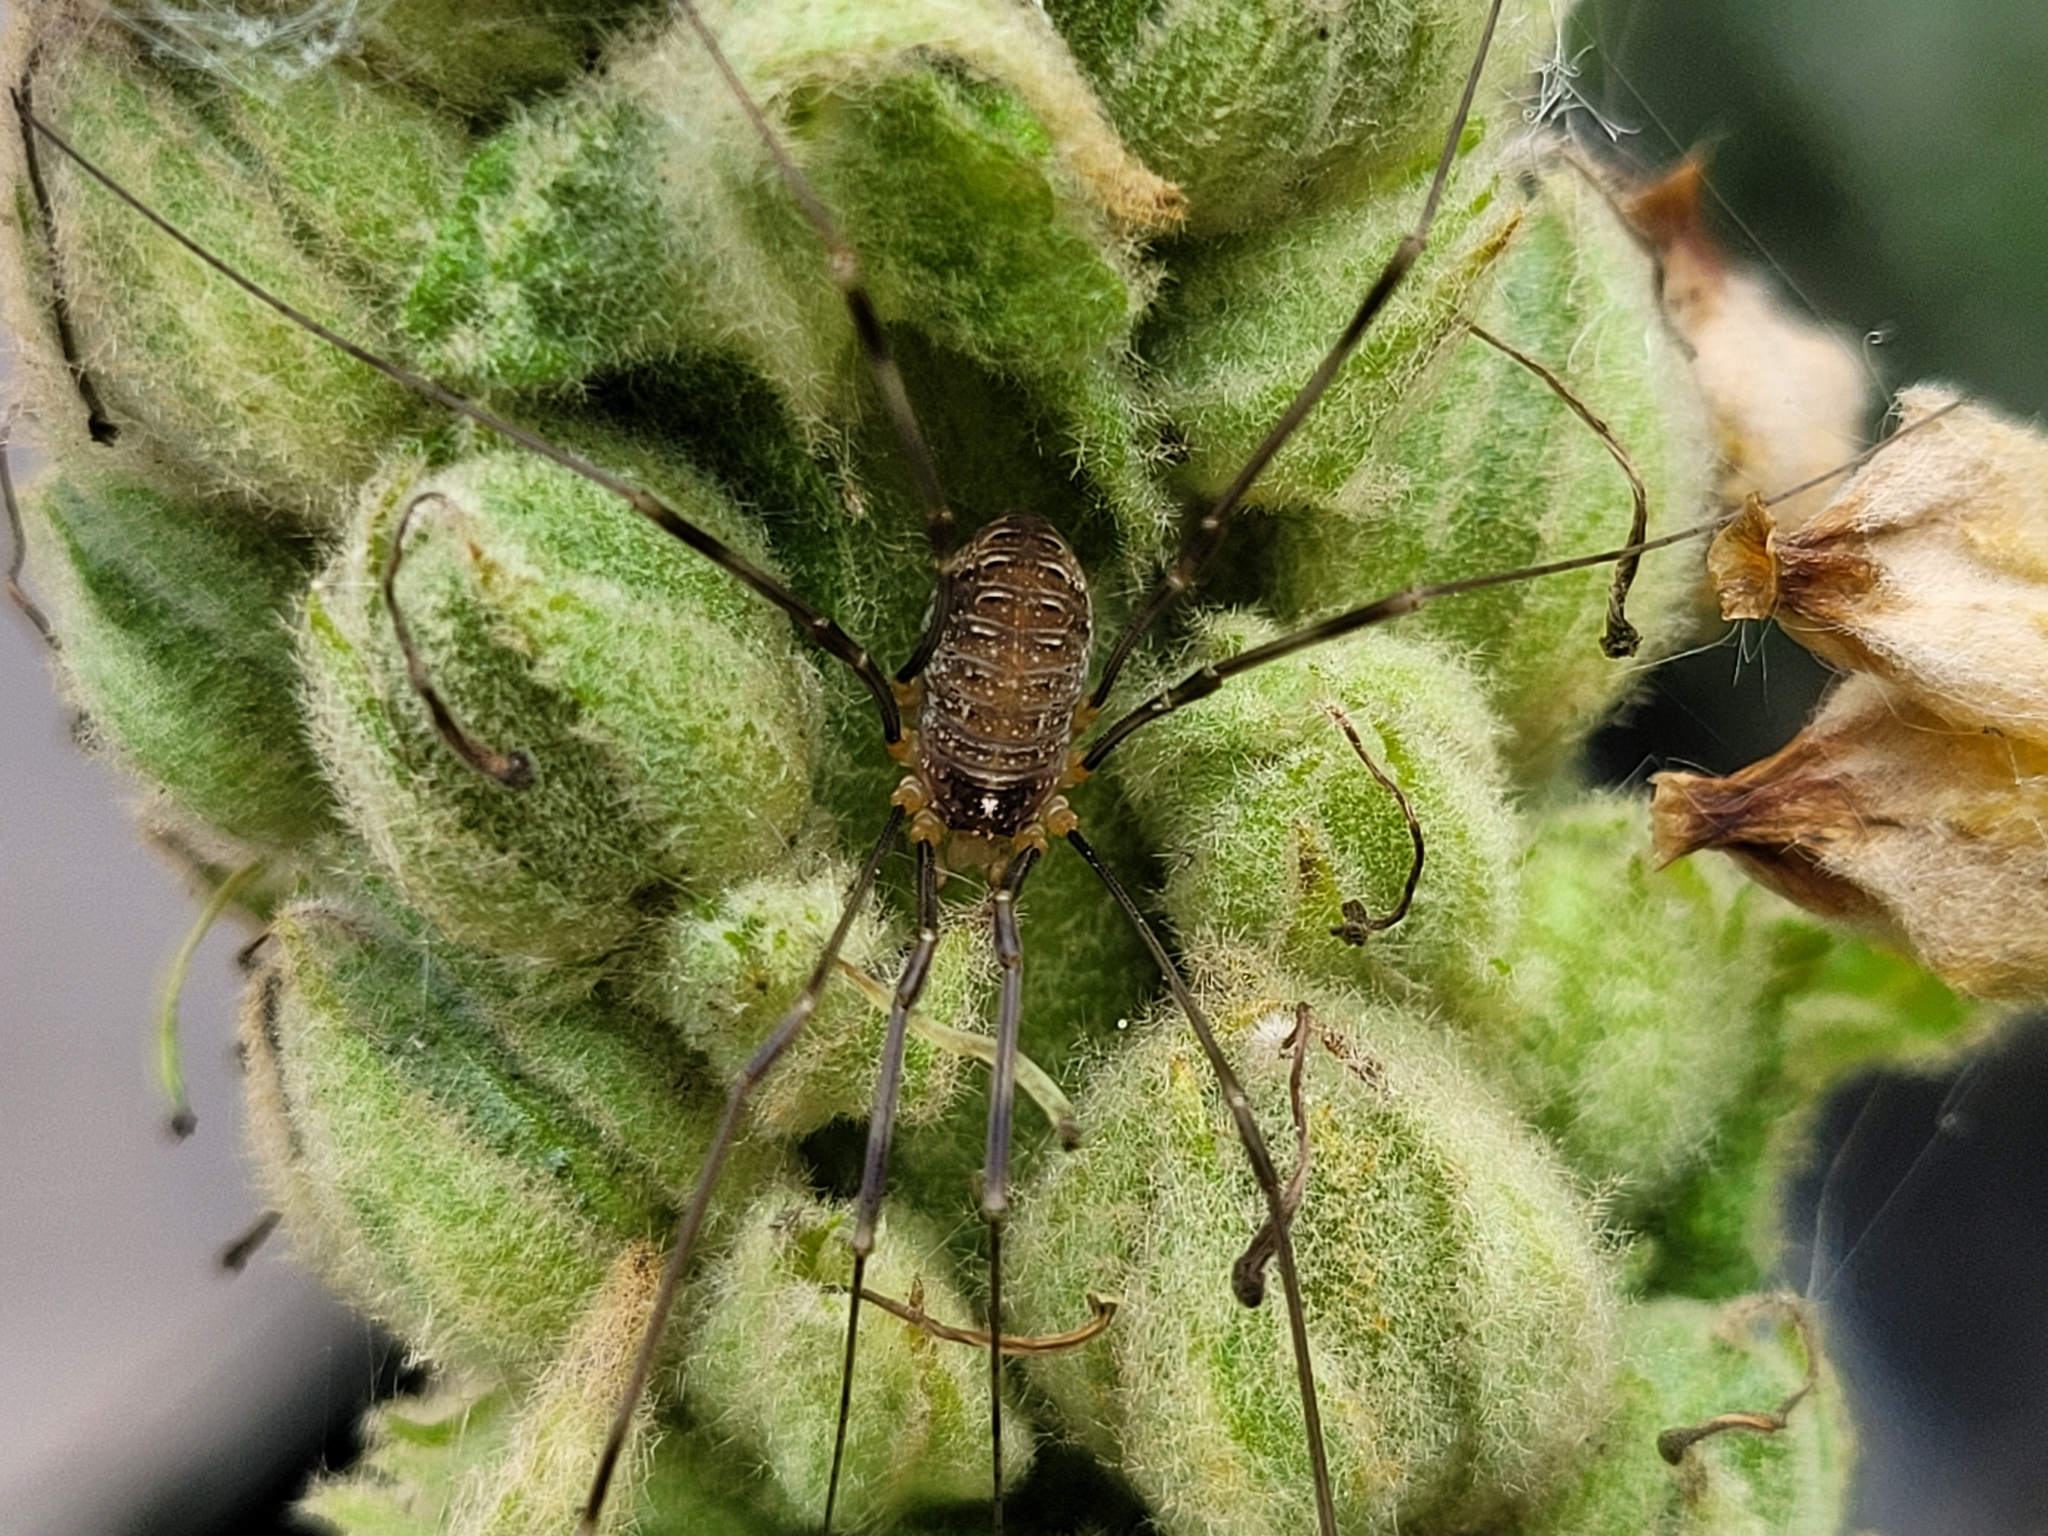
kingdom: Animalia
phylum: Arthropoda
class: Arachnida
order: Opiliones
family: Phalangiidae
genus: Opilio
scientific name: Opilio canestrinii
